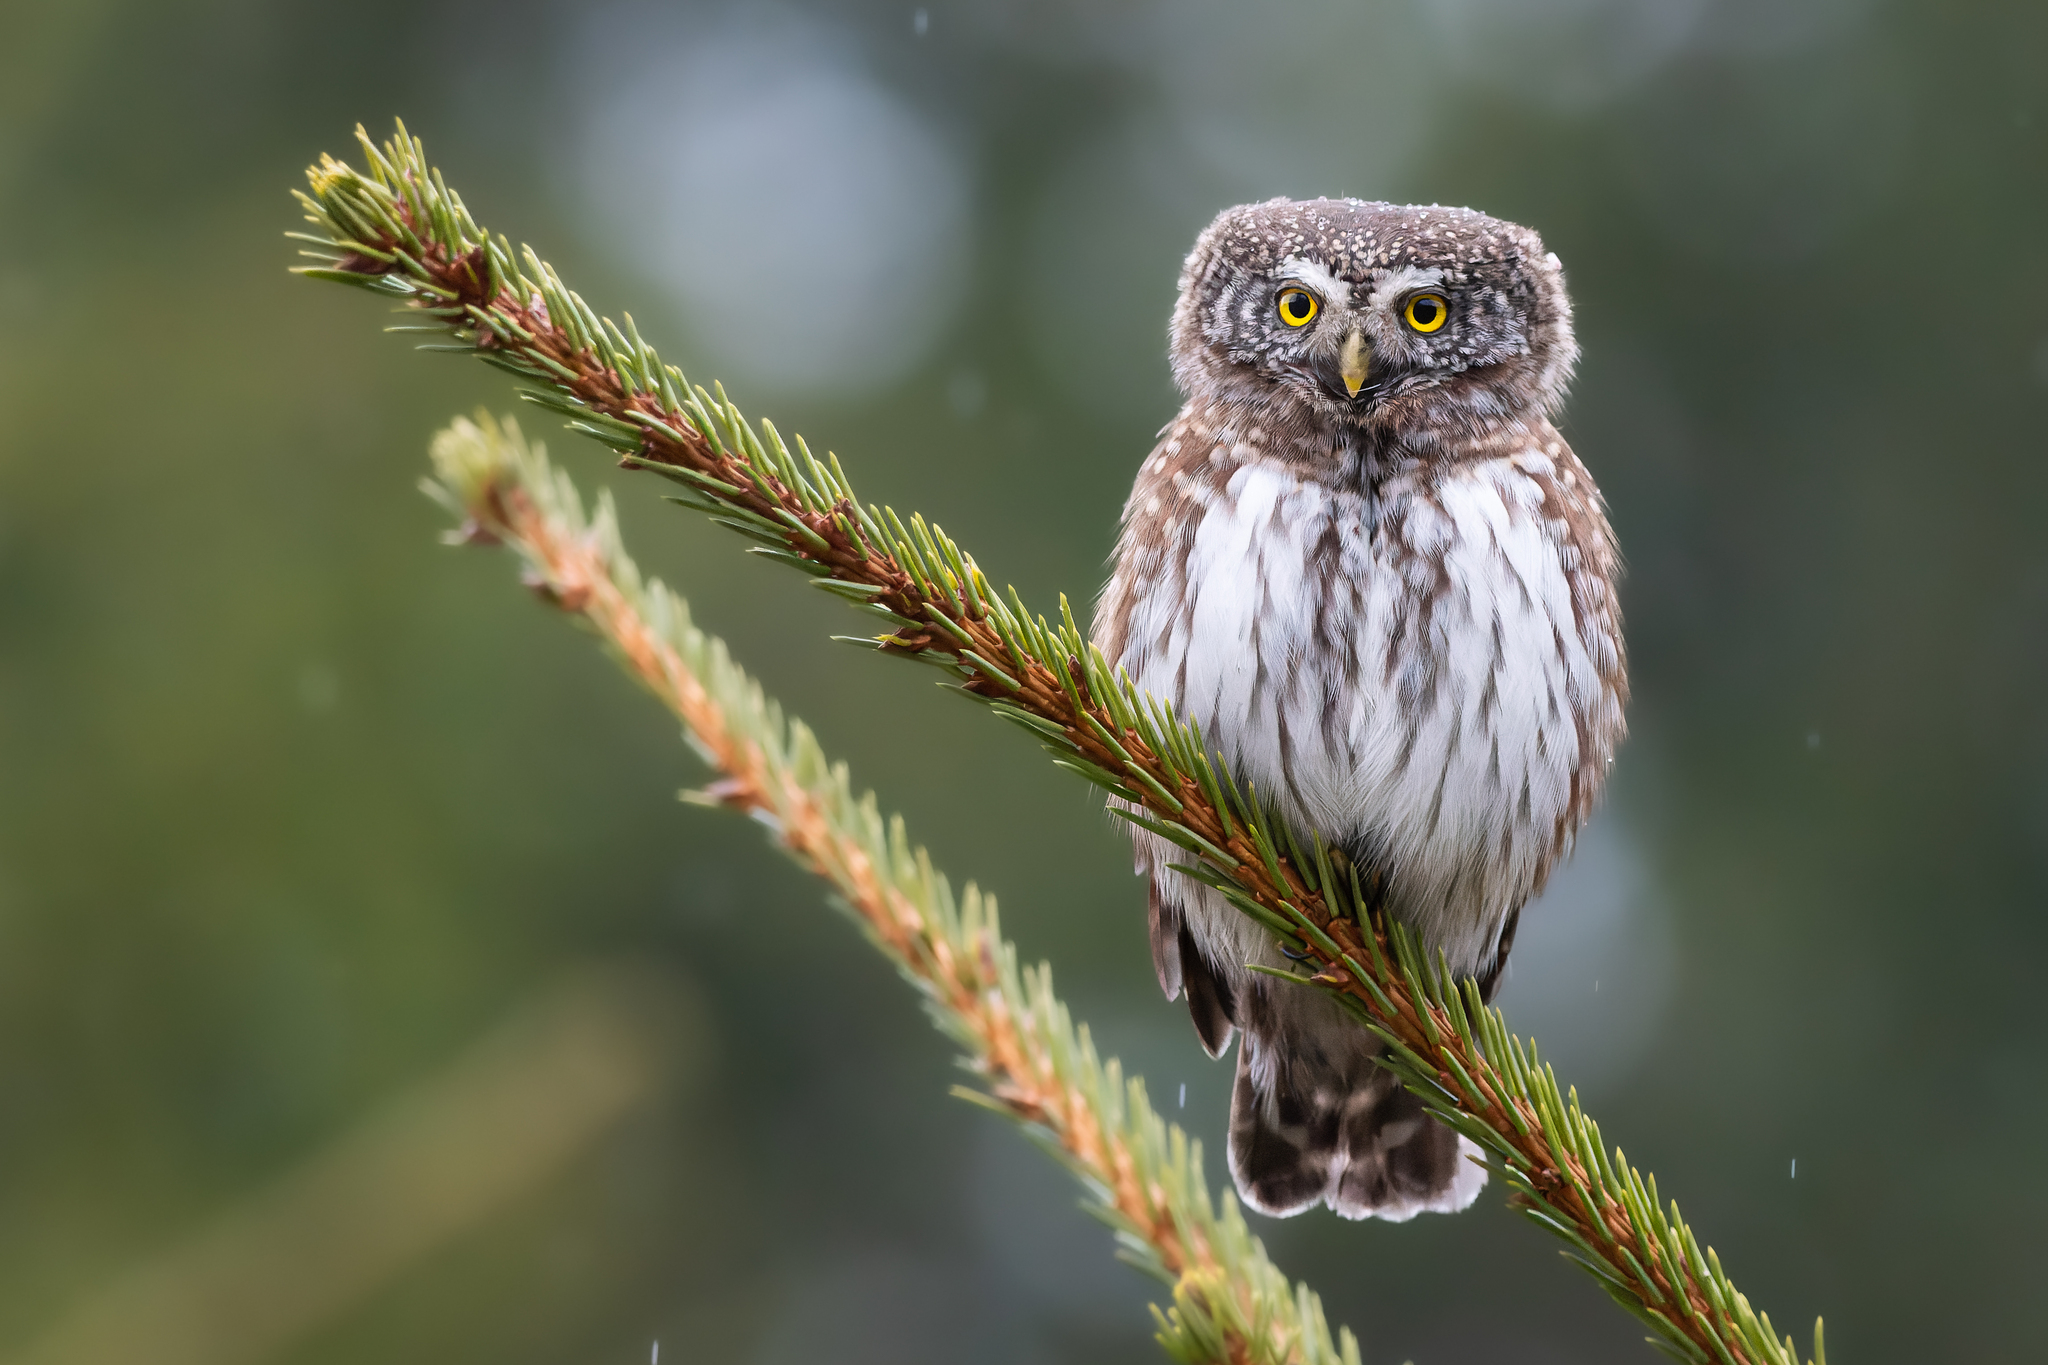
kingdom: Animalia
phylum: Chordata
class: Aves
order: Strigiformes
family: Strigidae
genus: Glaucidium
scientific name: Glaucidium passerinum
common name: Eurasian pygmy owl
